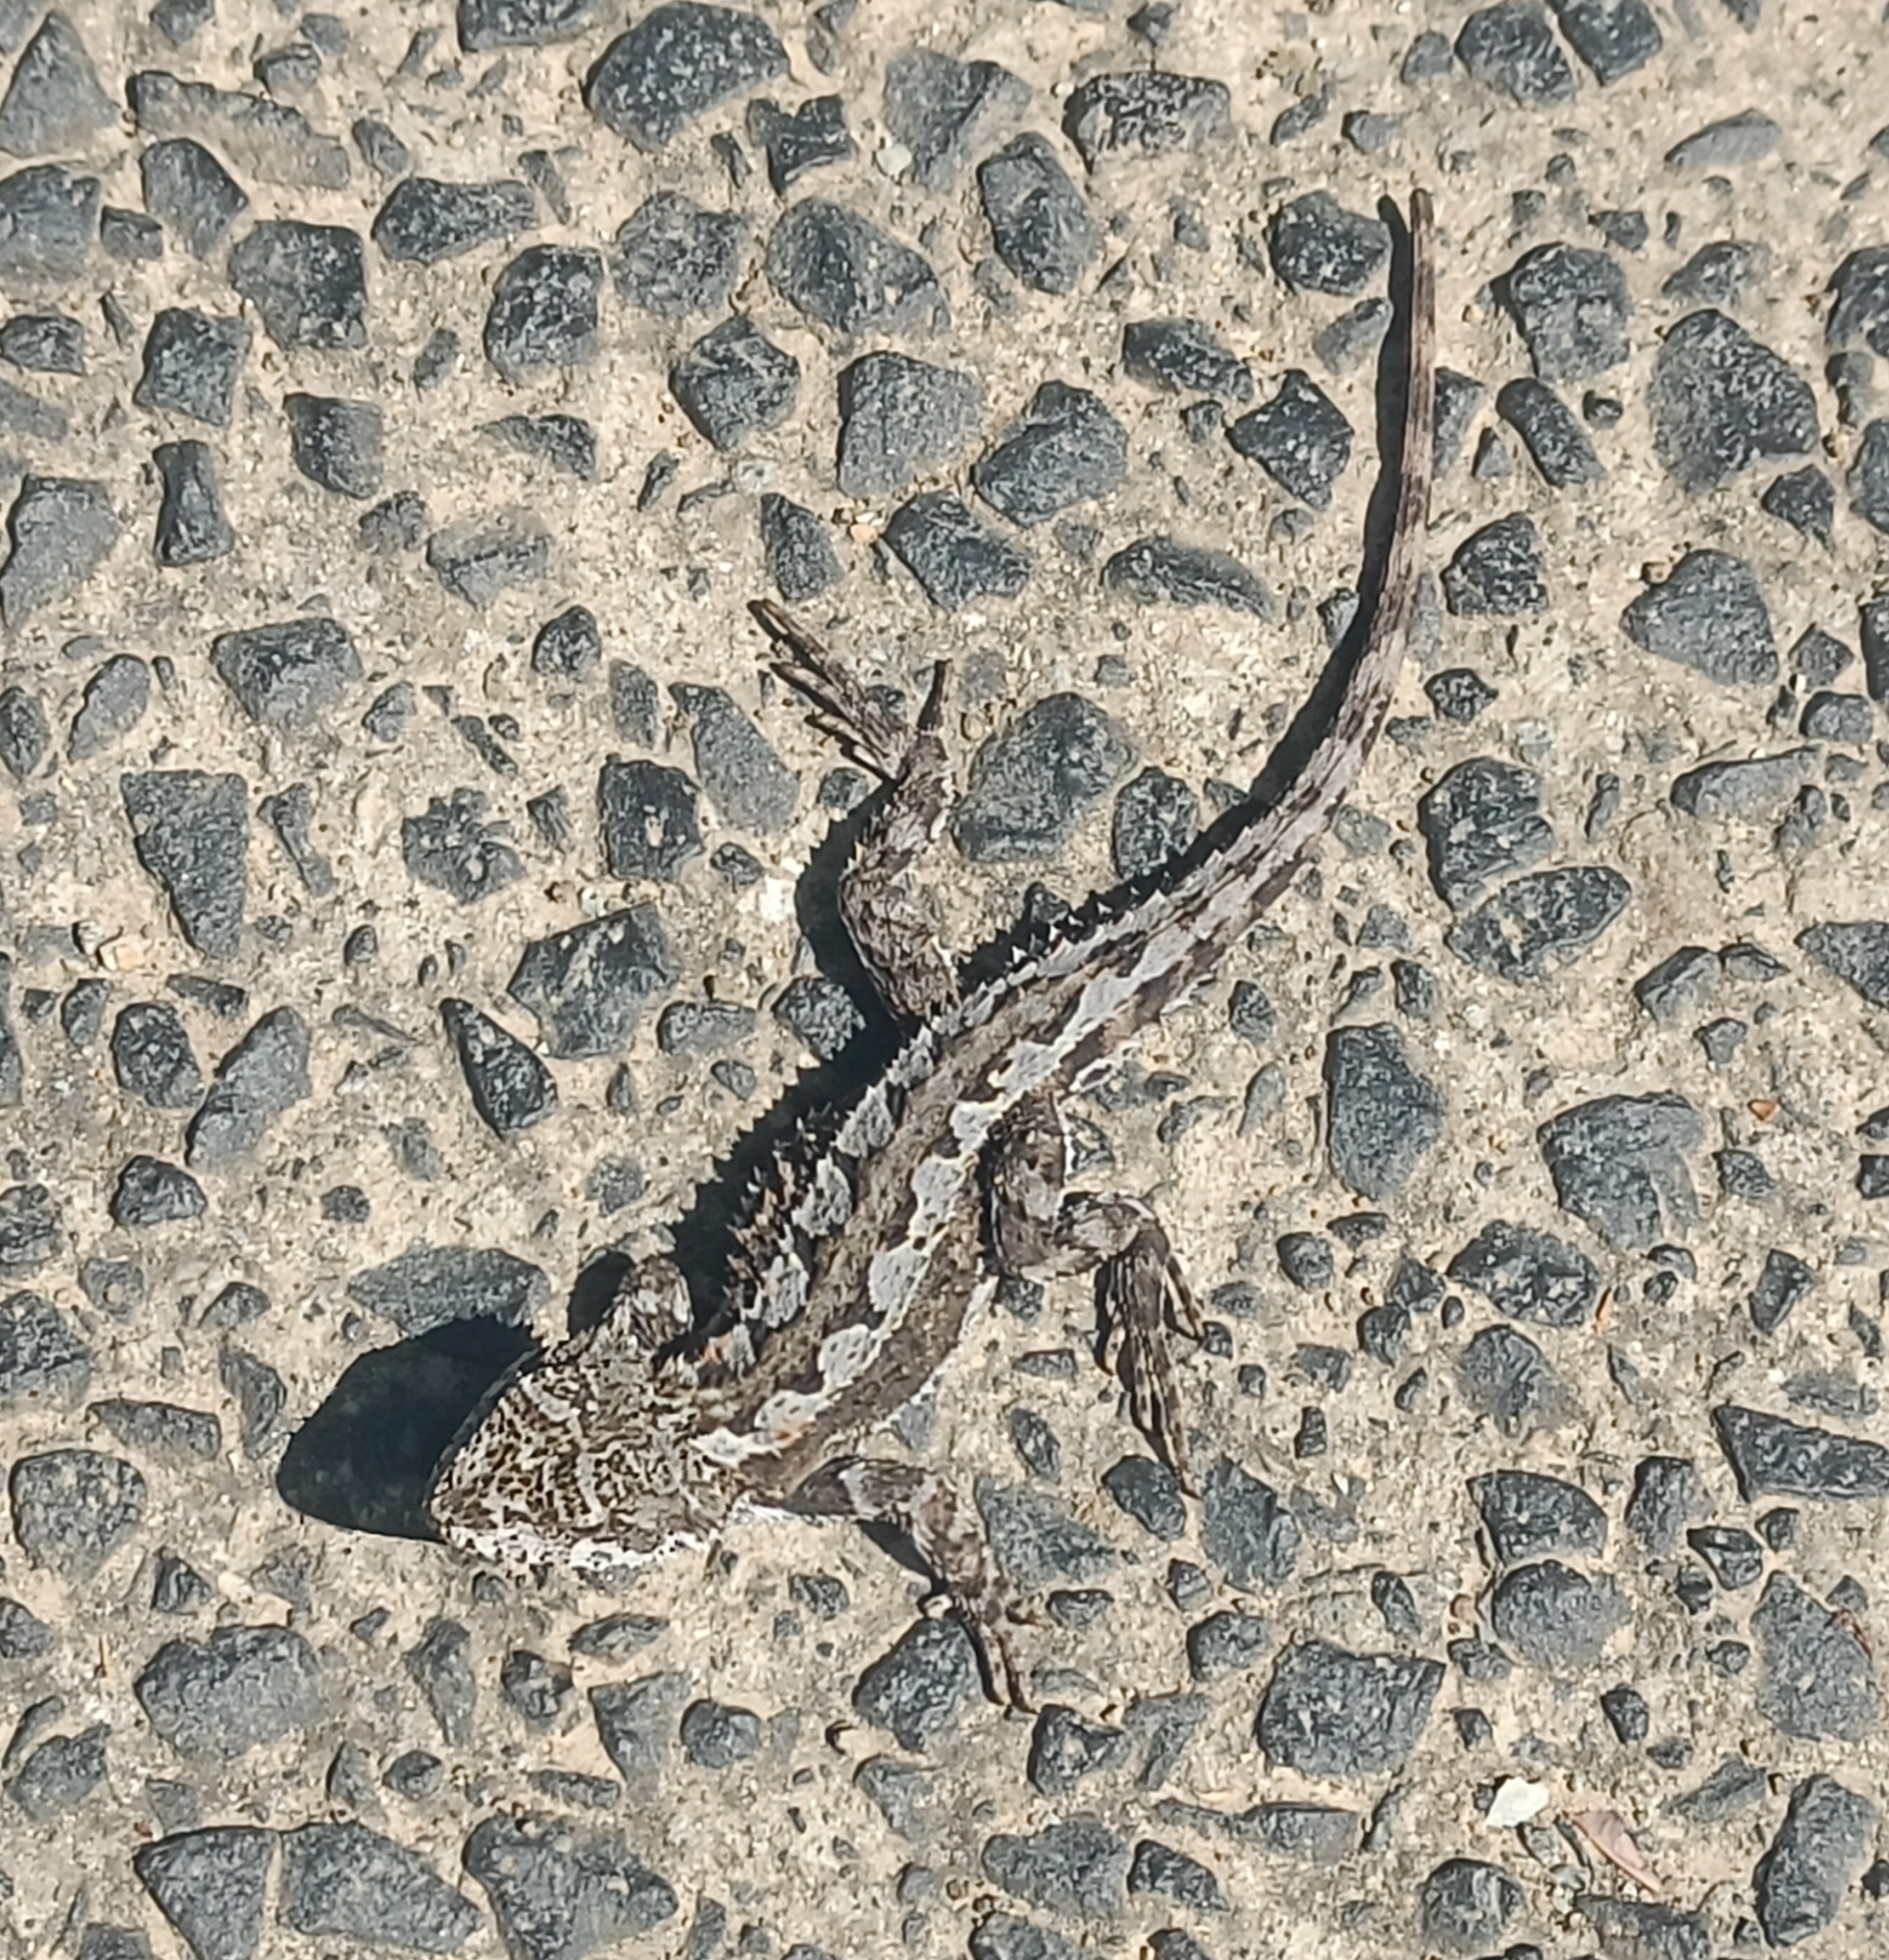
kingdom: Animalia
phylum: Chordata
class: Squamata
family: Agamidae
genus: Rankinia
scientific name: Rankinia diemensis
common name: Mountain dragon
